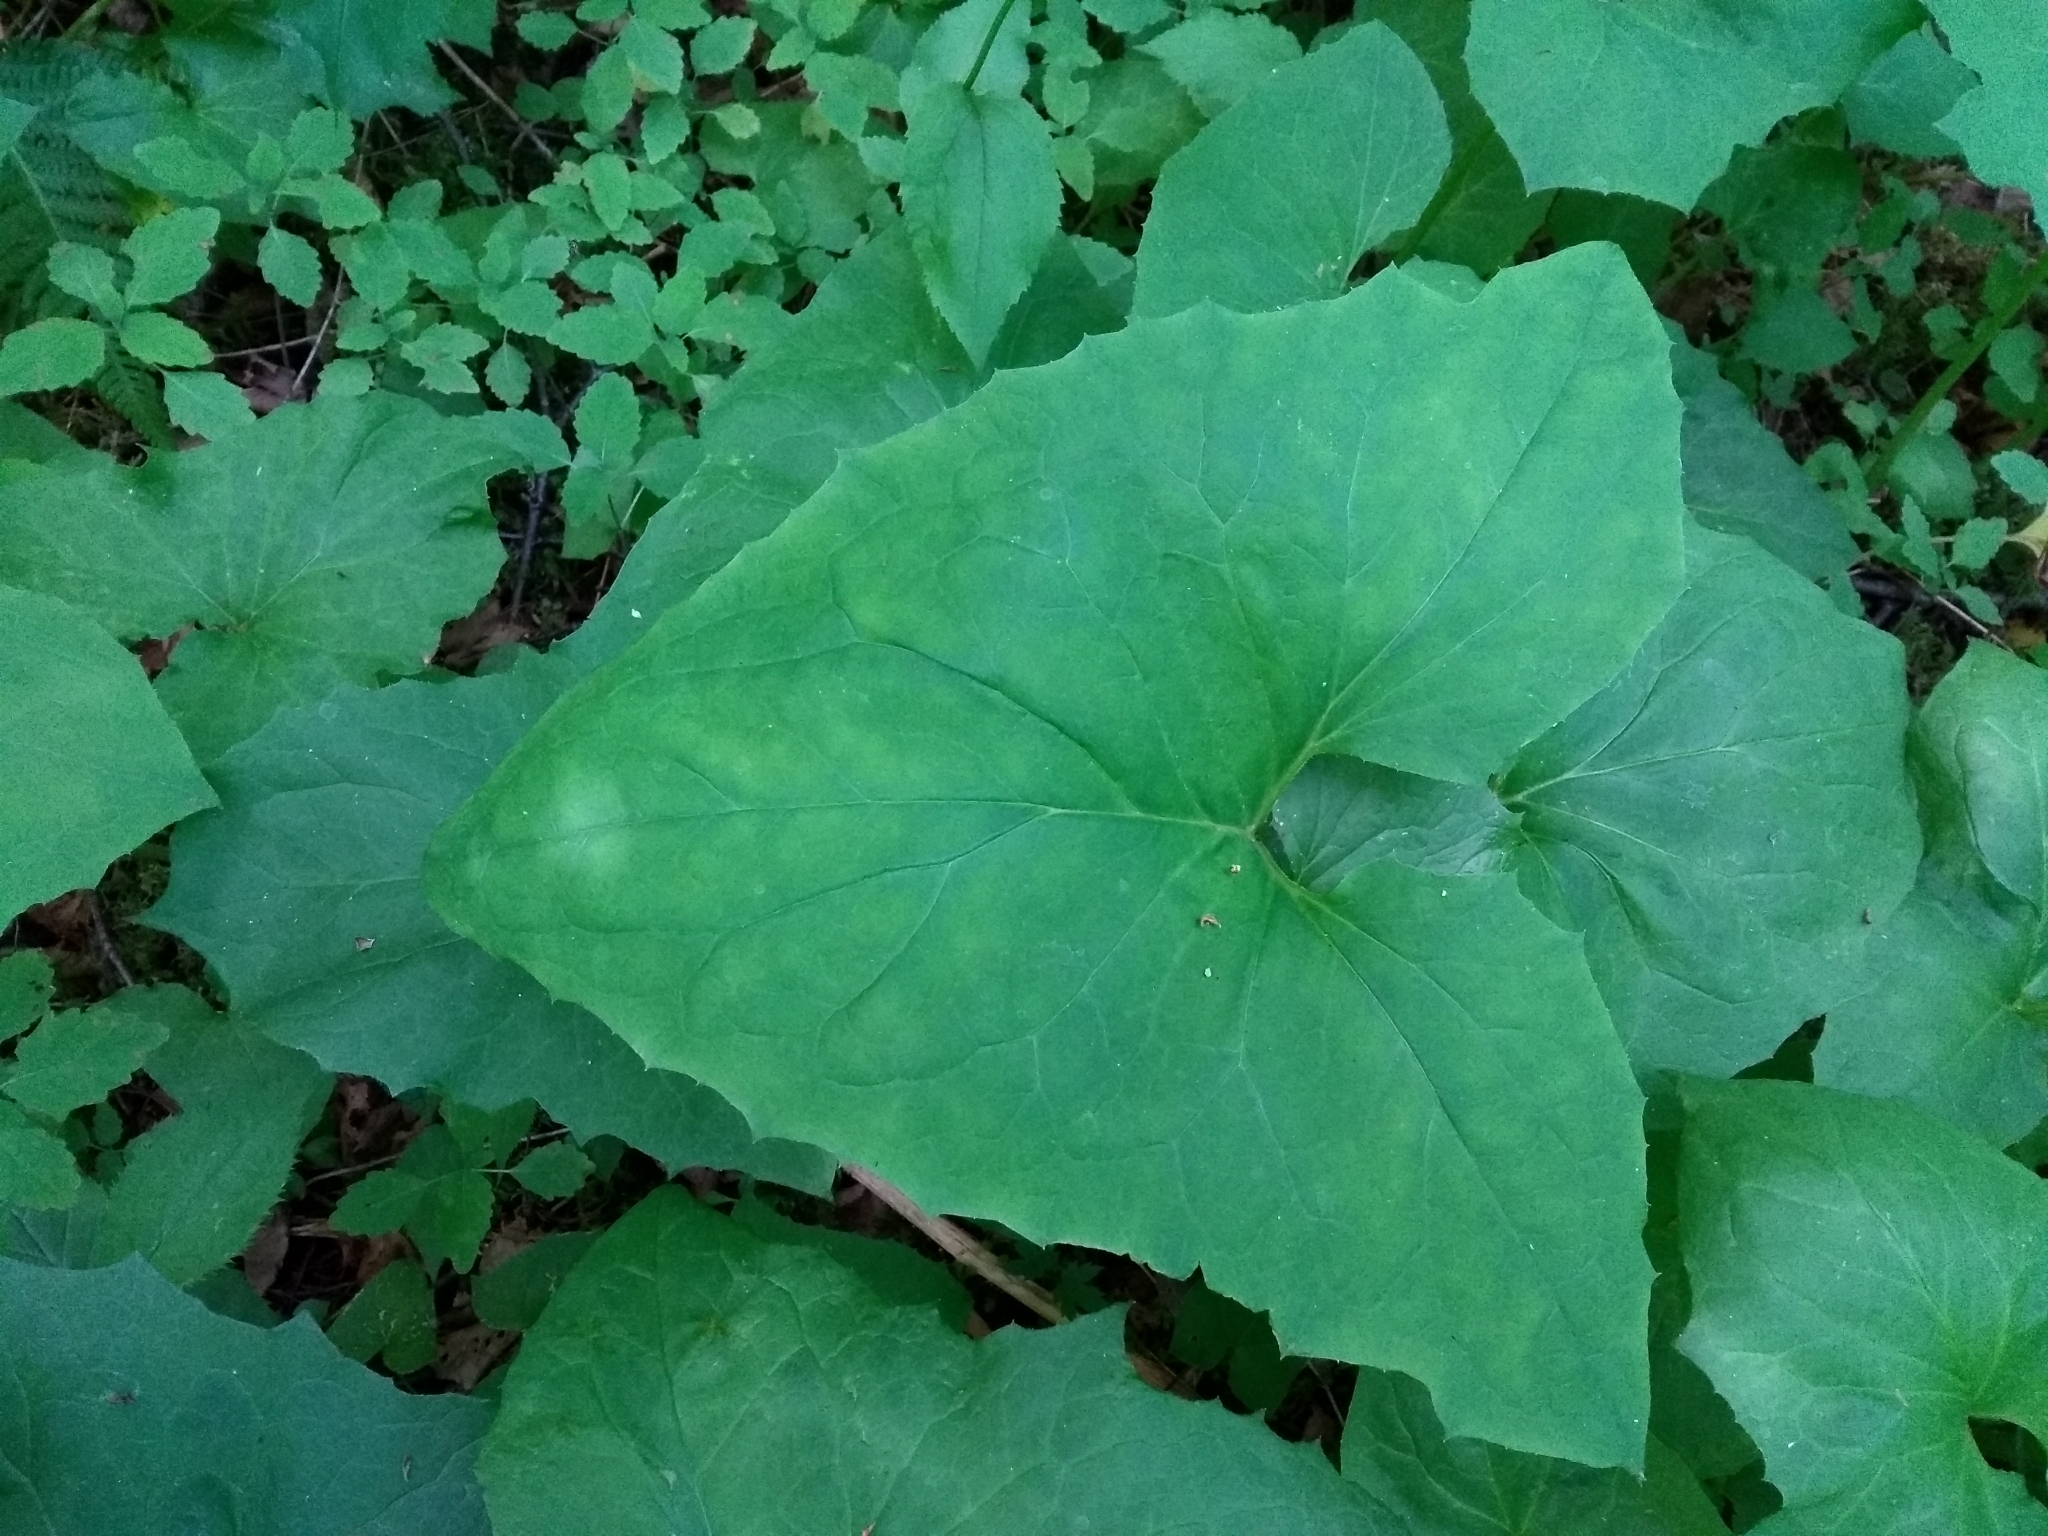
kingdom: Plantae
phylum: Tracheophyta
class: Magnoliopsida
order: Asterales
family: Asteraceae
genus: Nabalus
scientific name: Nabalus altissima
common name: Tall rattlesnakeroot
